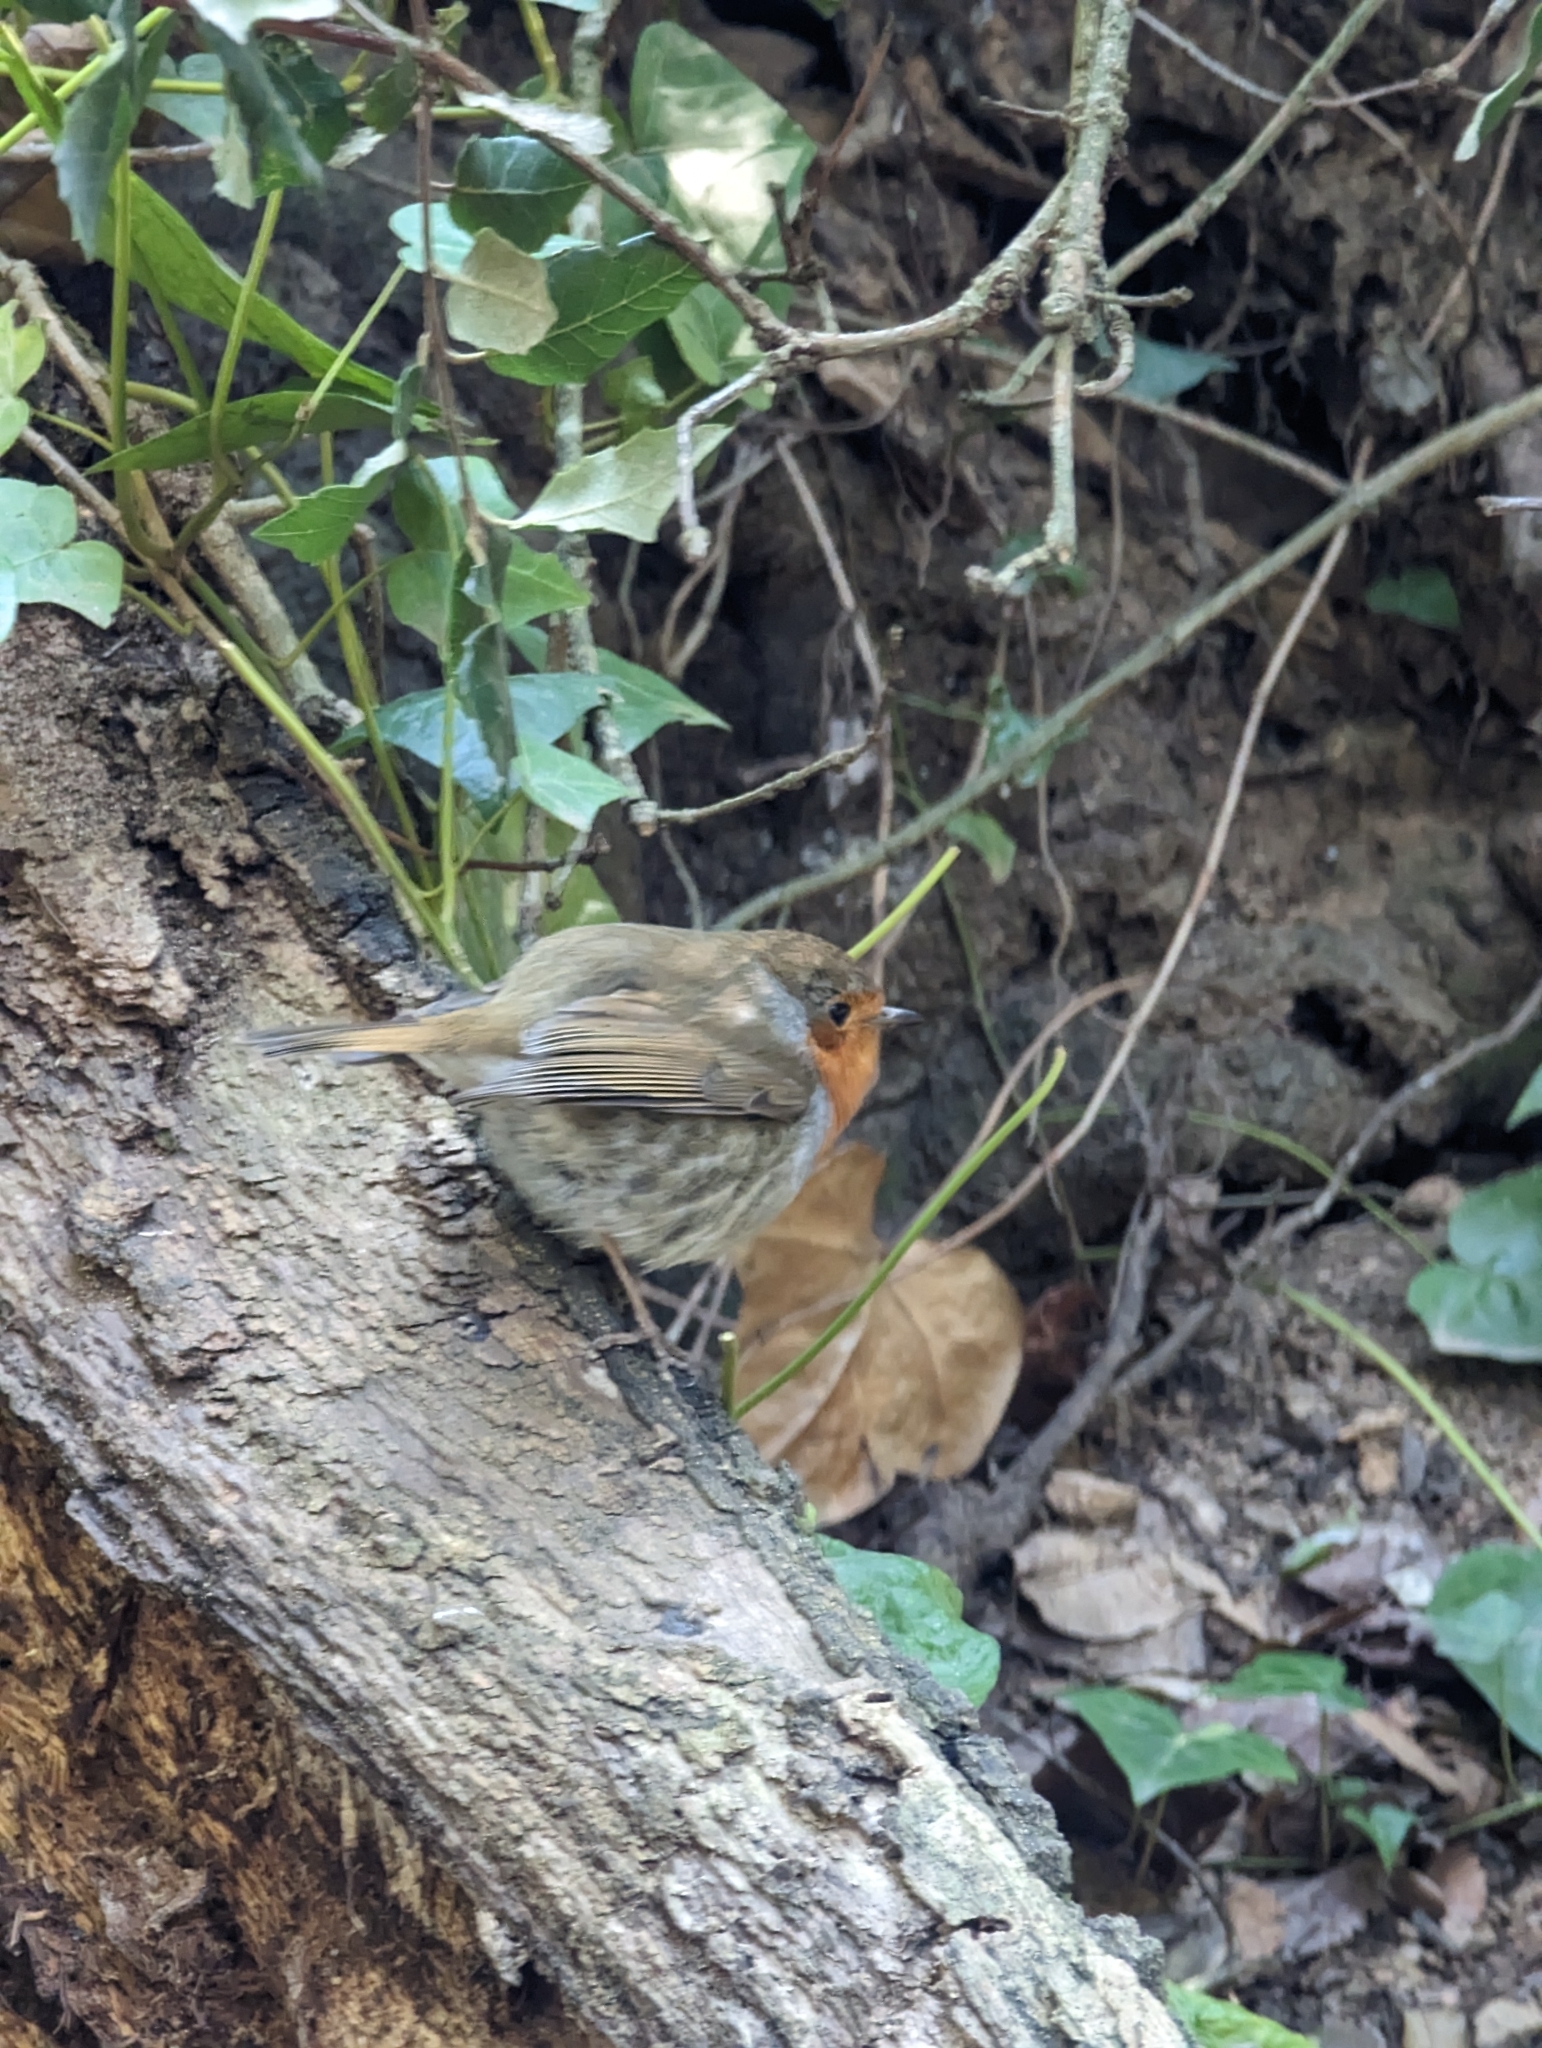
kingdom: Animalia
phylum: Chordata
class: Aves
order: Passeriformes
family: Muscicapidae
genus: Erithacus
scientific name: Erithacus rubecula
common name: European robin
